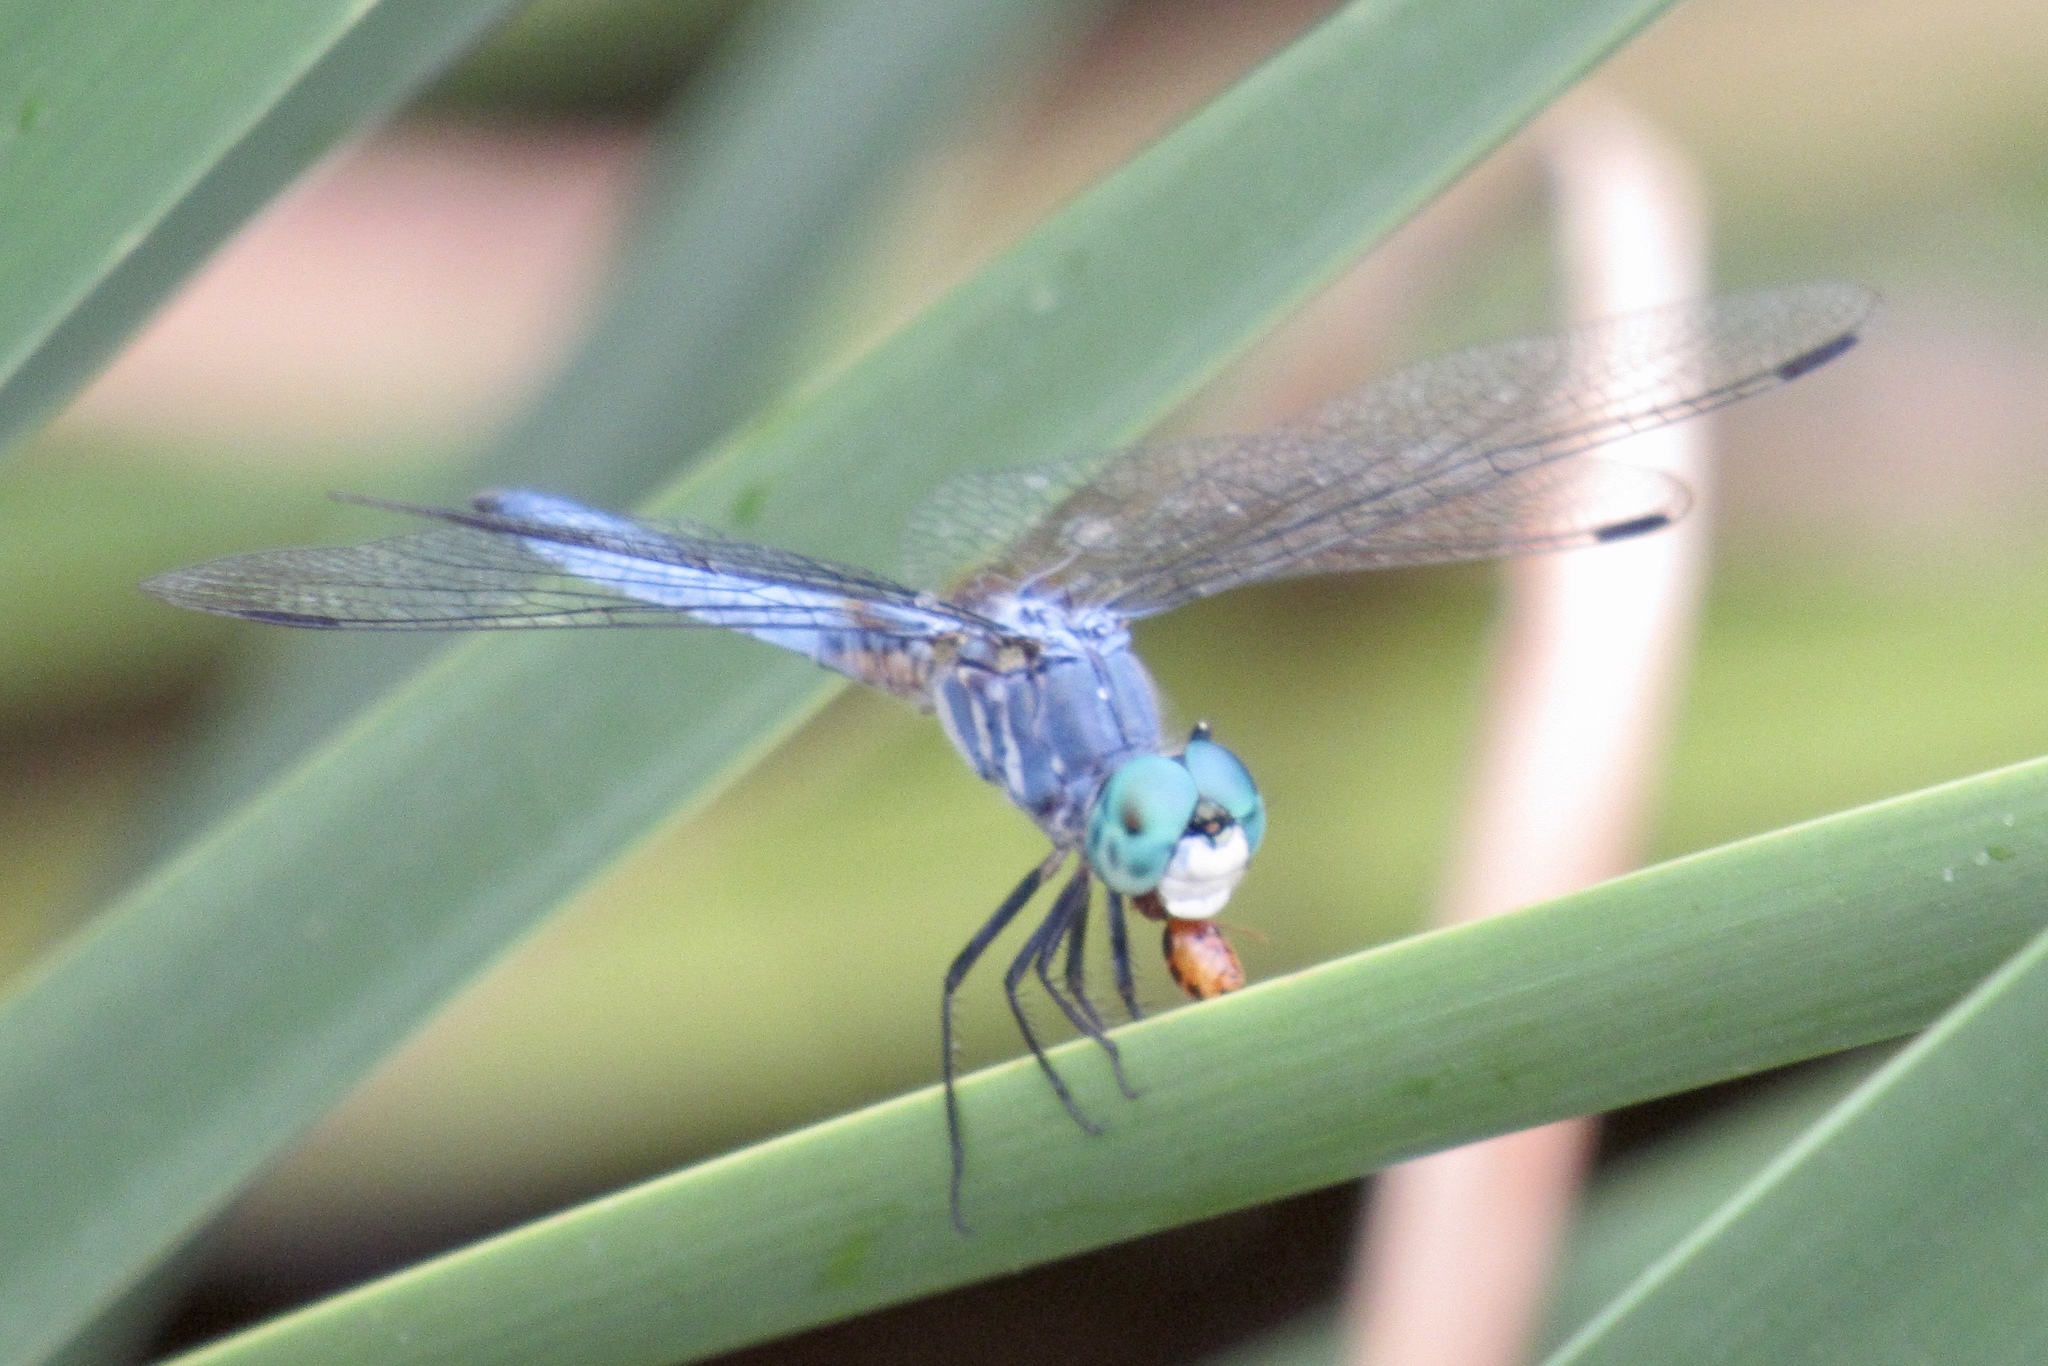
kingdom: Animalia
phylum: Arthropoda
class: Insecta
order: Odonata
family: Libellulidae
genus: Pachydiplax
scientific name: Pachydiplax longipennis
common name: Blue dasher
